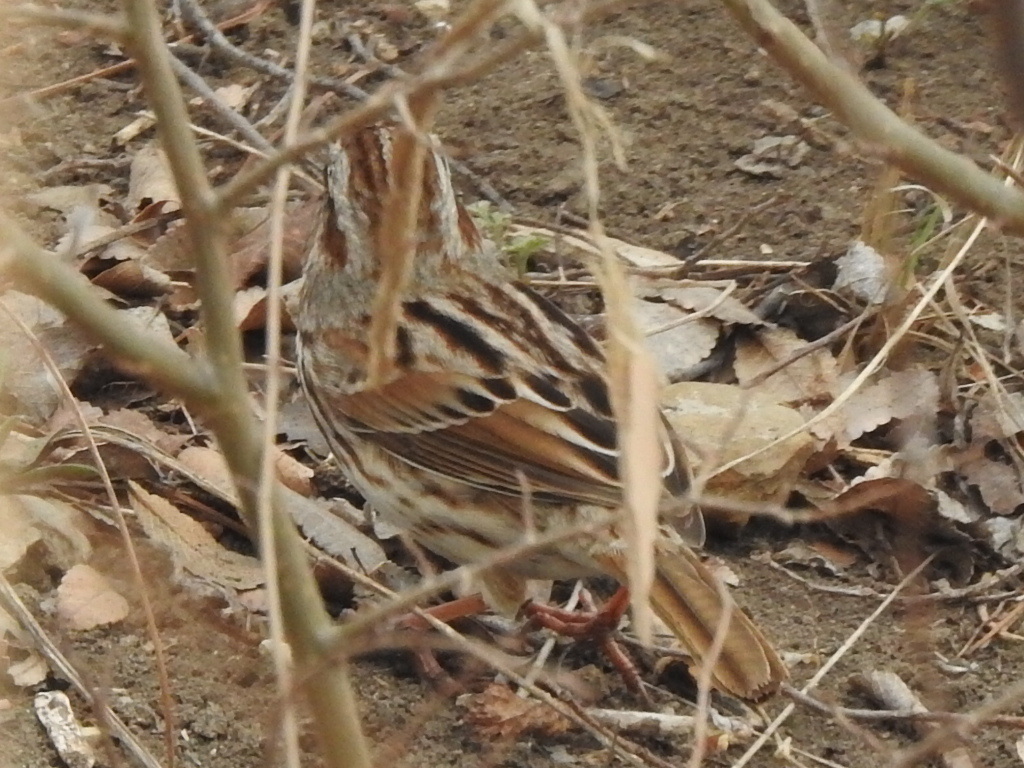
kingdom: Animalia
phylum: Chordata
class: Aves
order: Passeriformes
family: Passerellidae
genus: Melospiza
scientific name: Melospiza melodia
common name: Song sparrow
